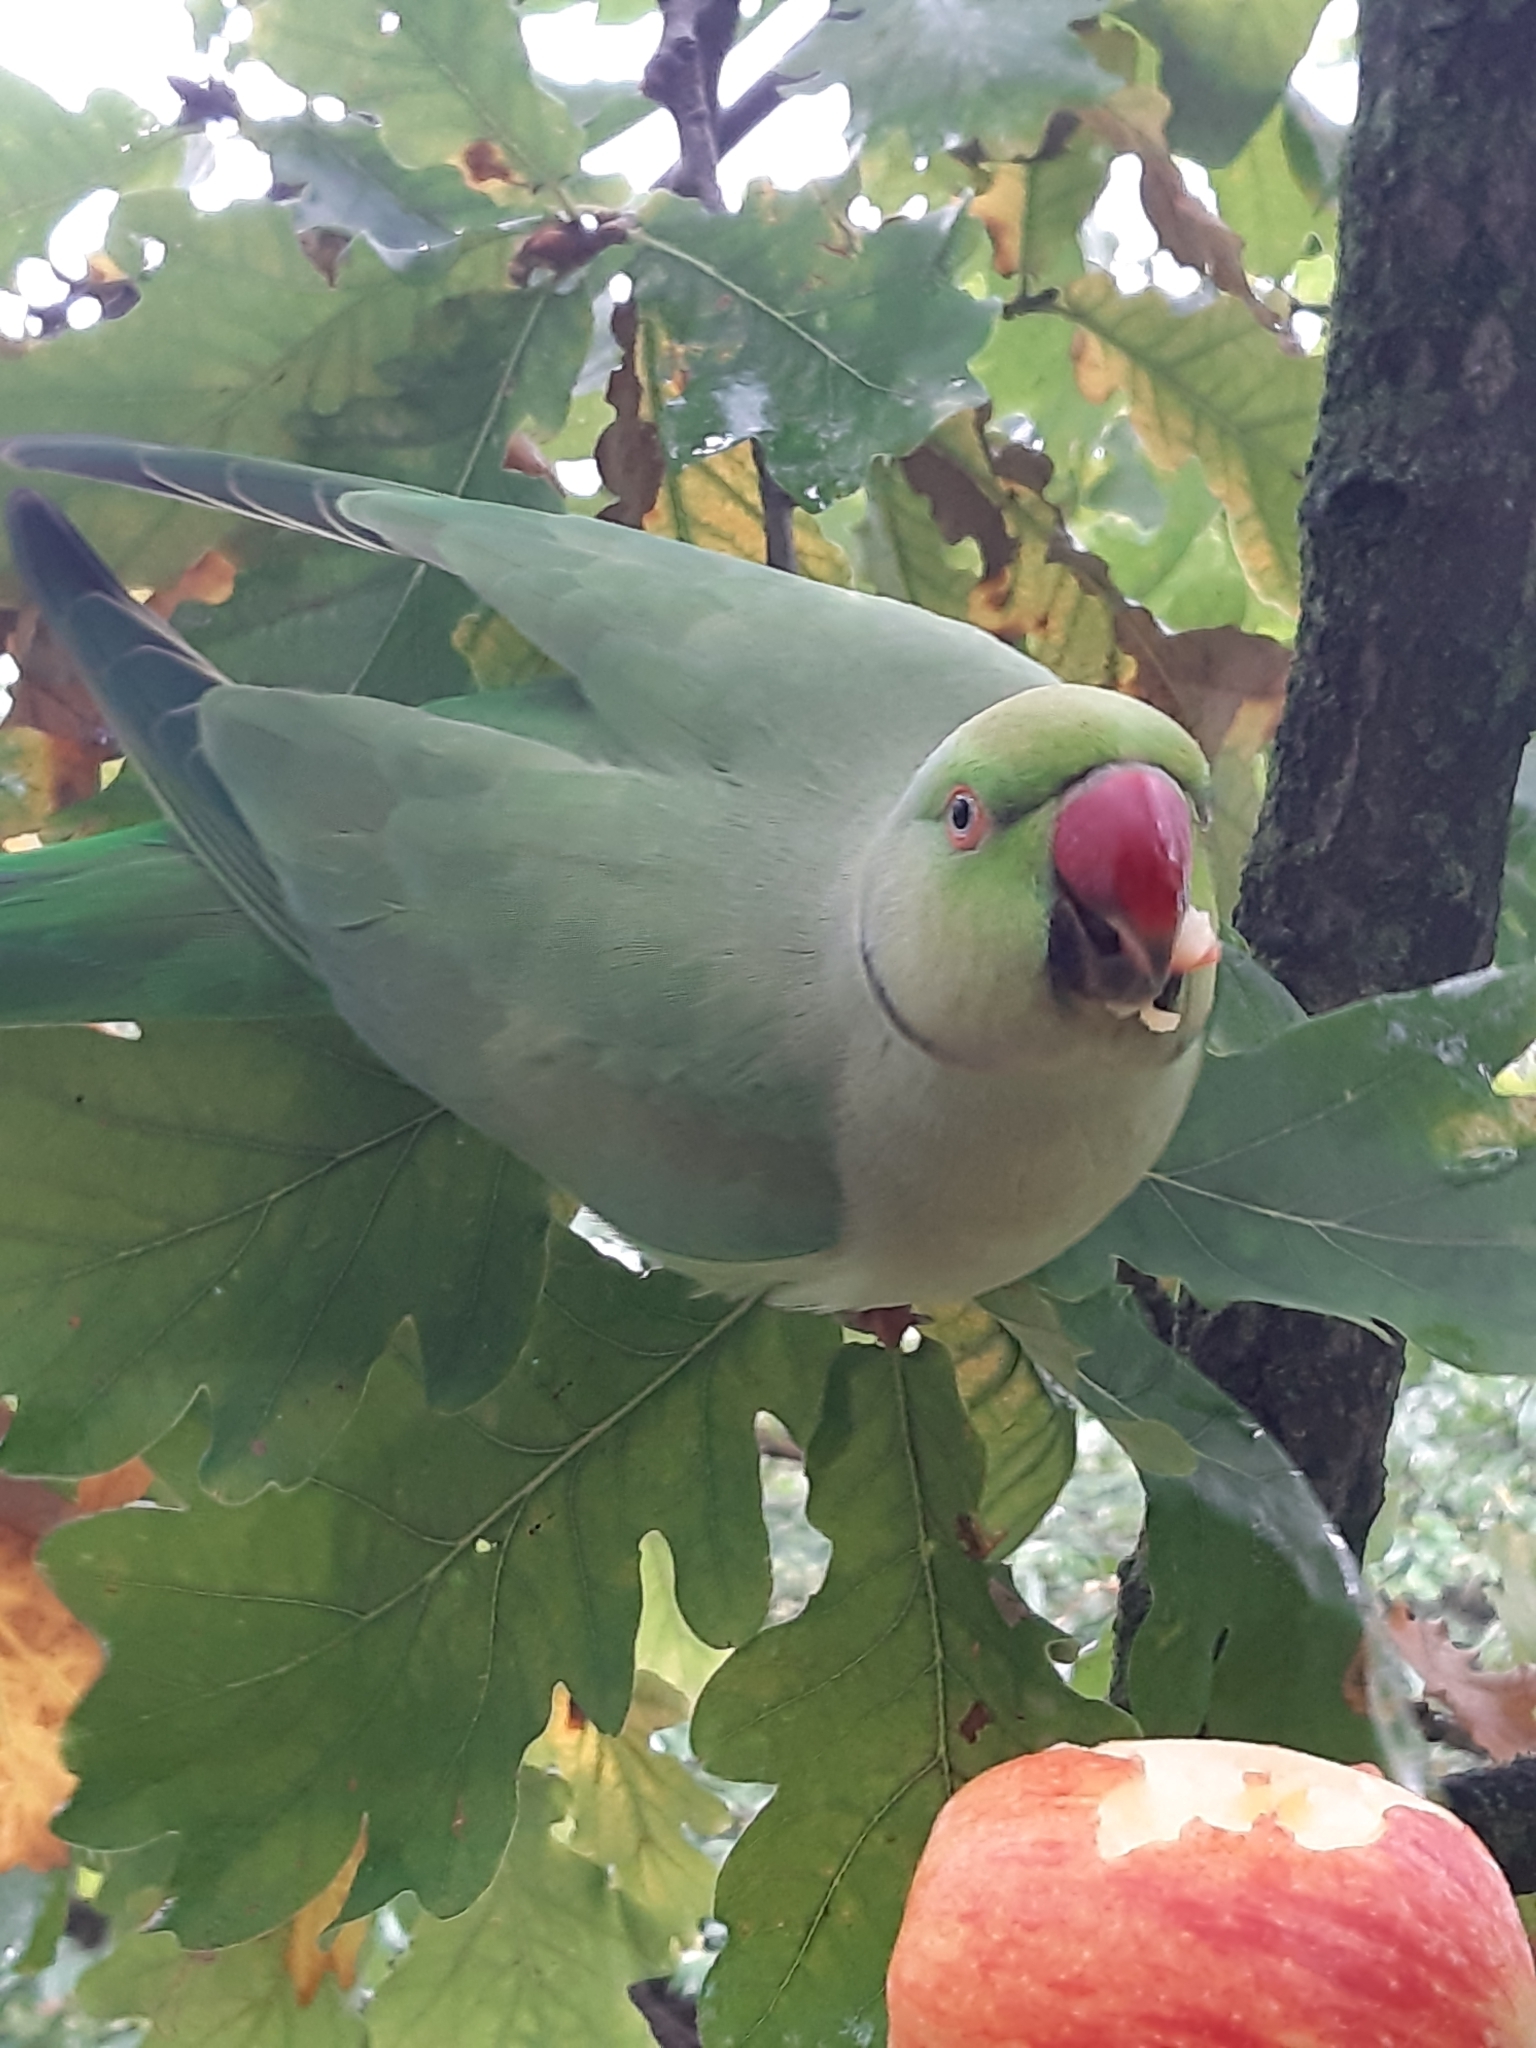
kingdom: Animalia
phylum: Chordata
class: Aves
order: Psittaciformes
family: Psittacidae
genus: Psittacula
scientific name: Psittacula krameri
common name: Rose-ringed parakeet
